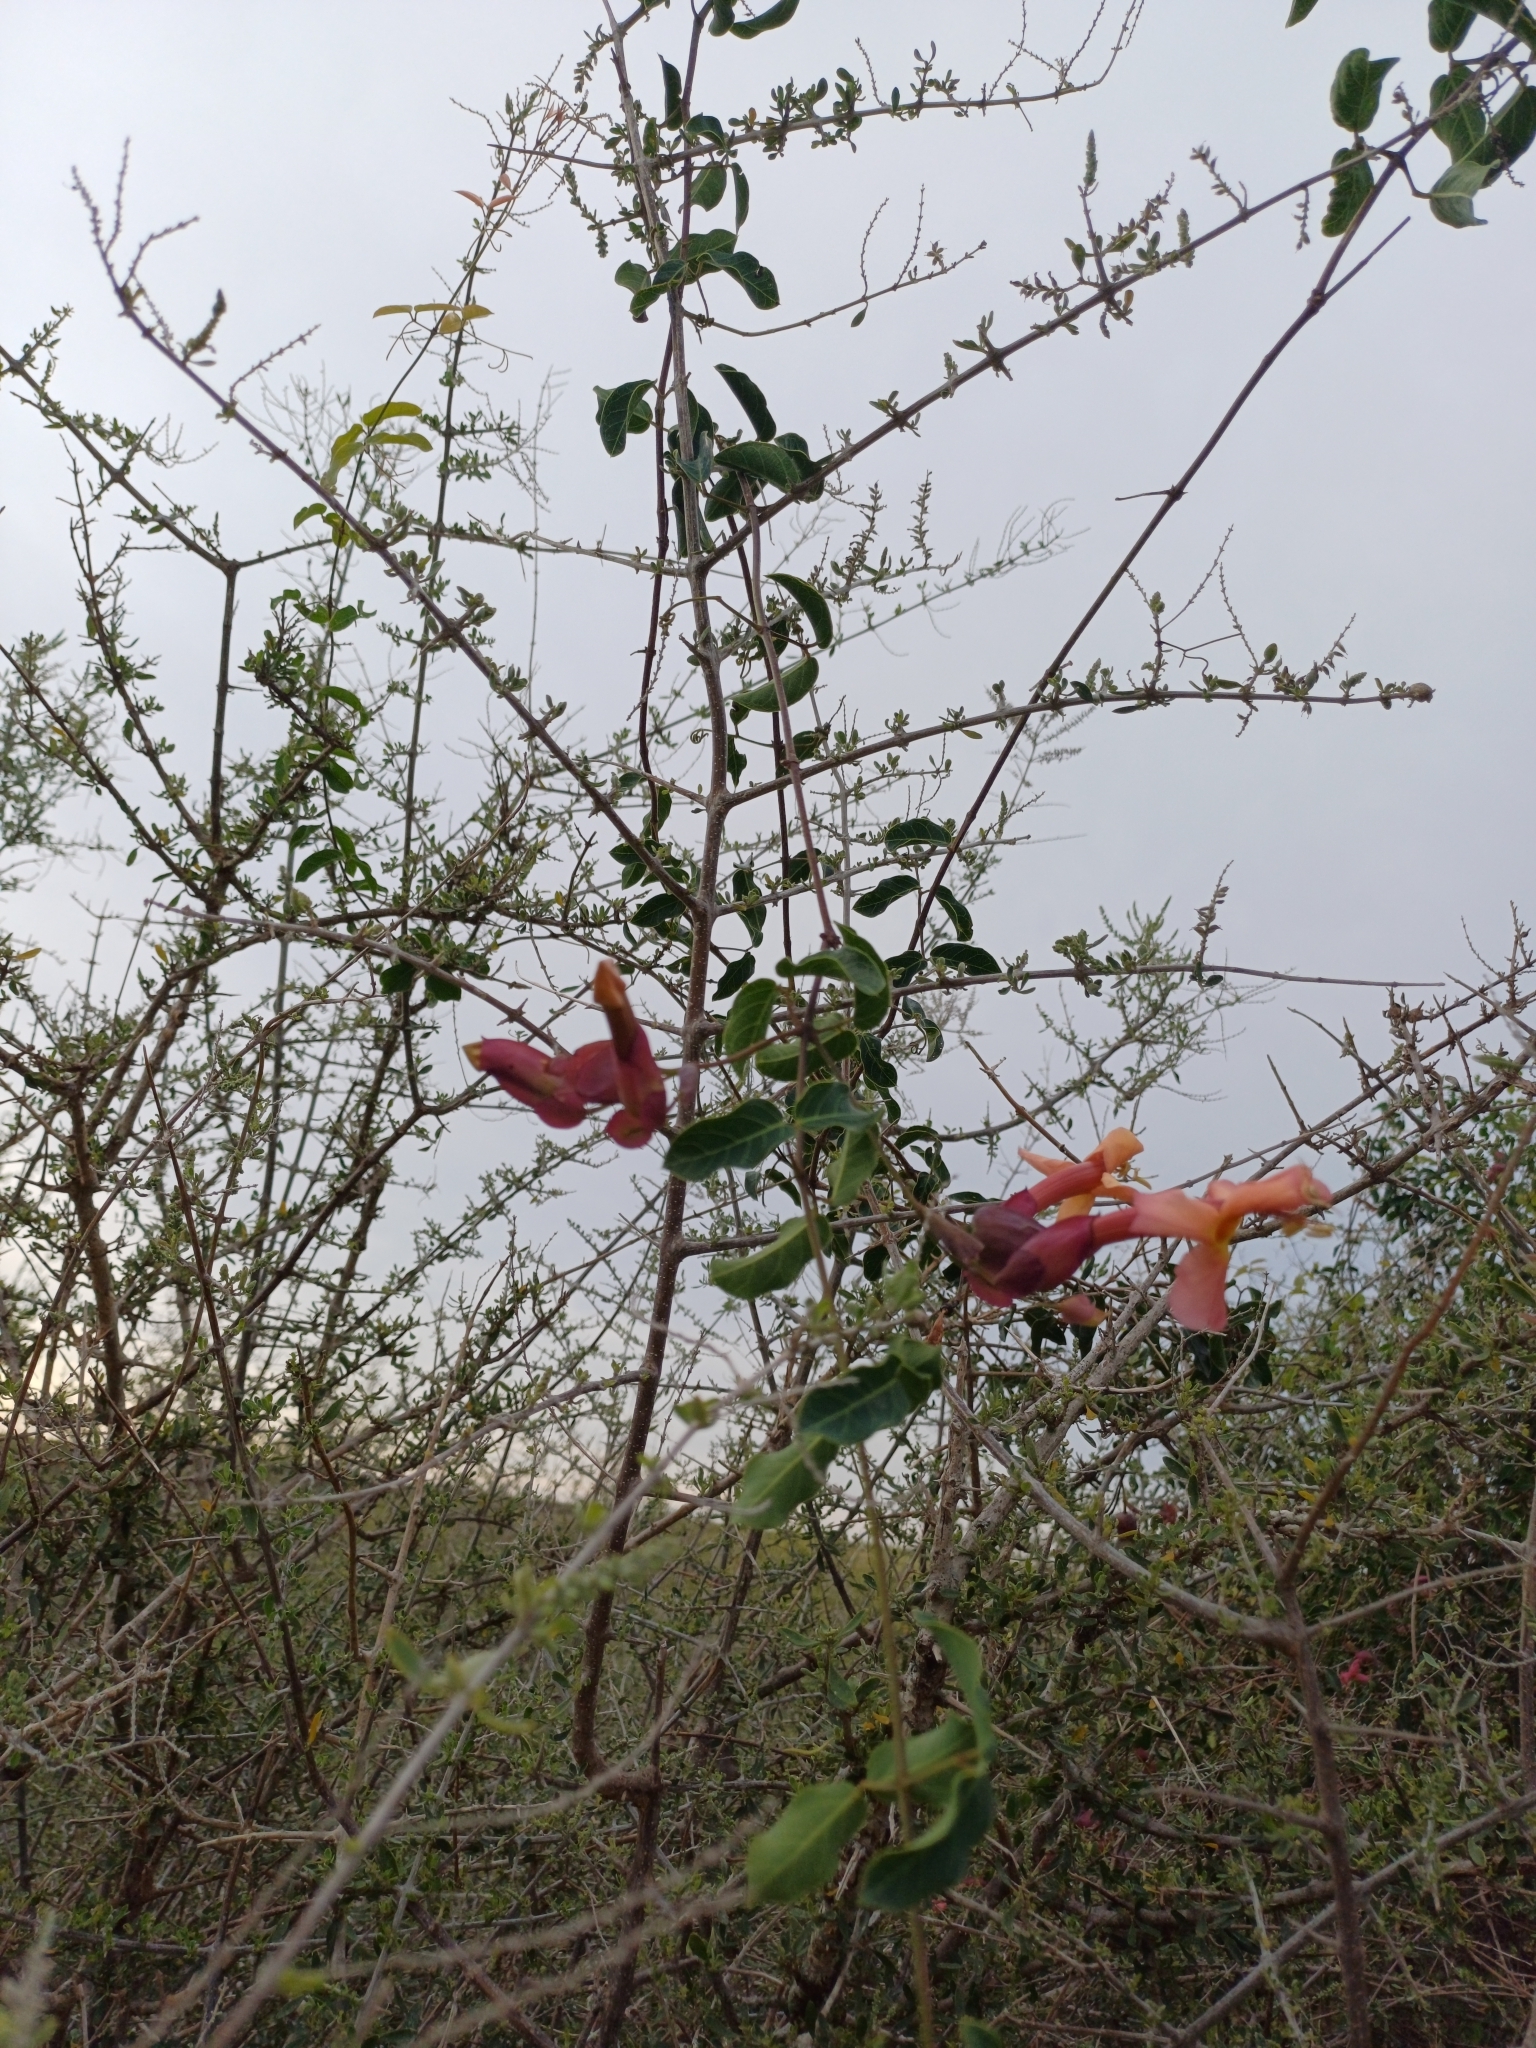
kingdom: Plantae
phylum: Tracheophyta
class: Magnoliopsida
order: Lamiales
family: Bignoniaceae
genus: Dolichandra
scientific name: Dolichandra cynanchoides
